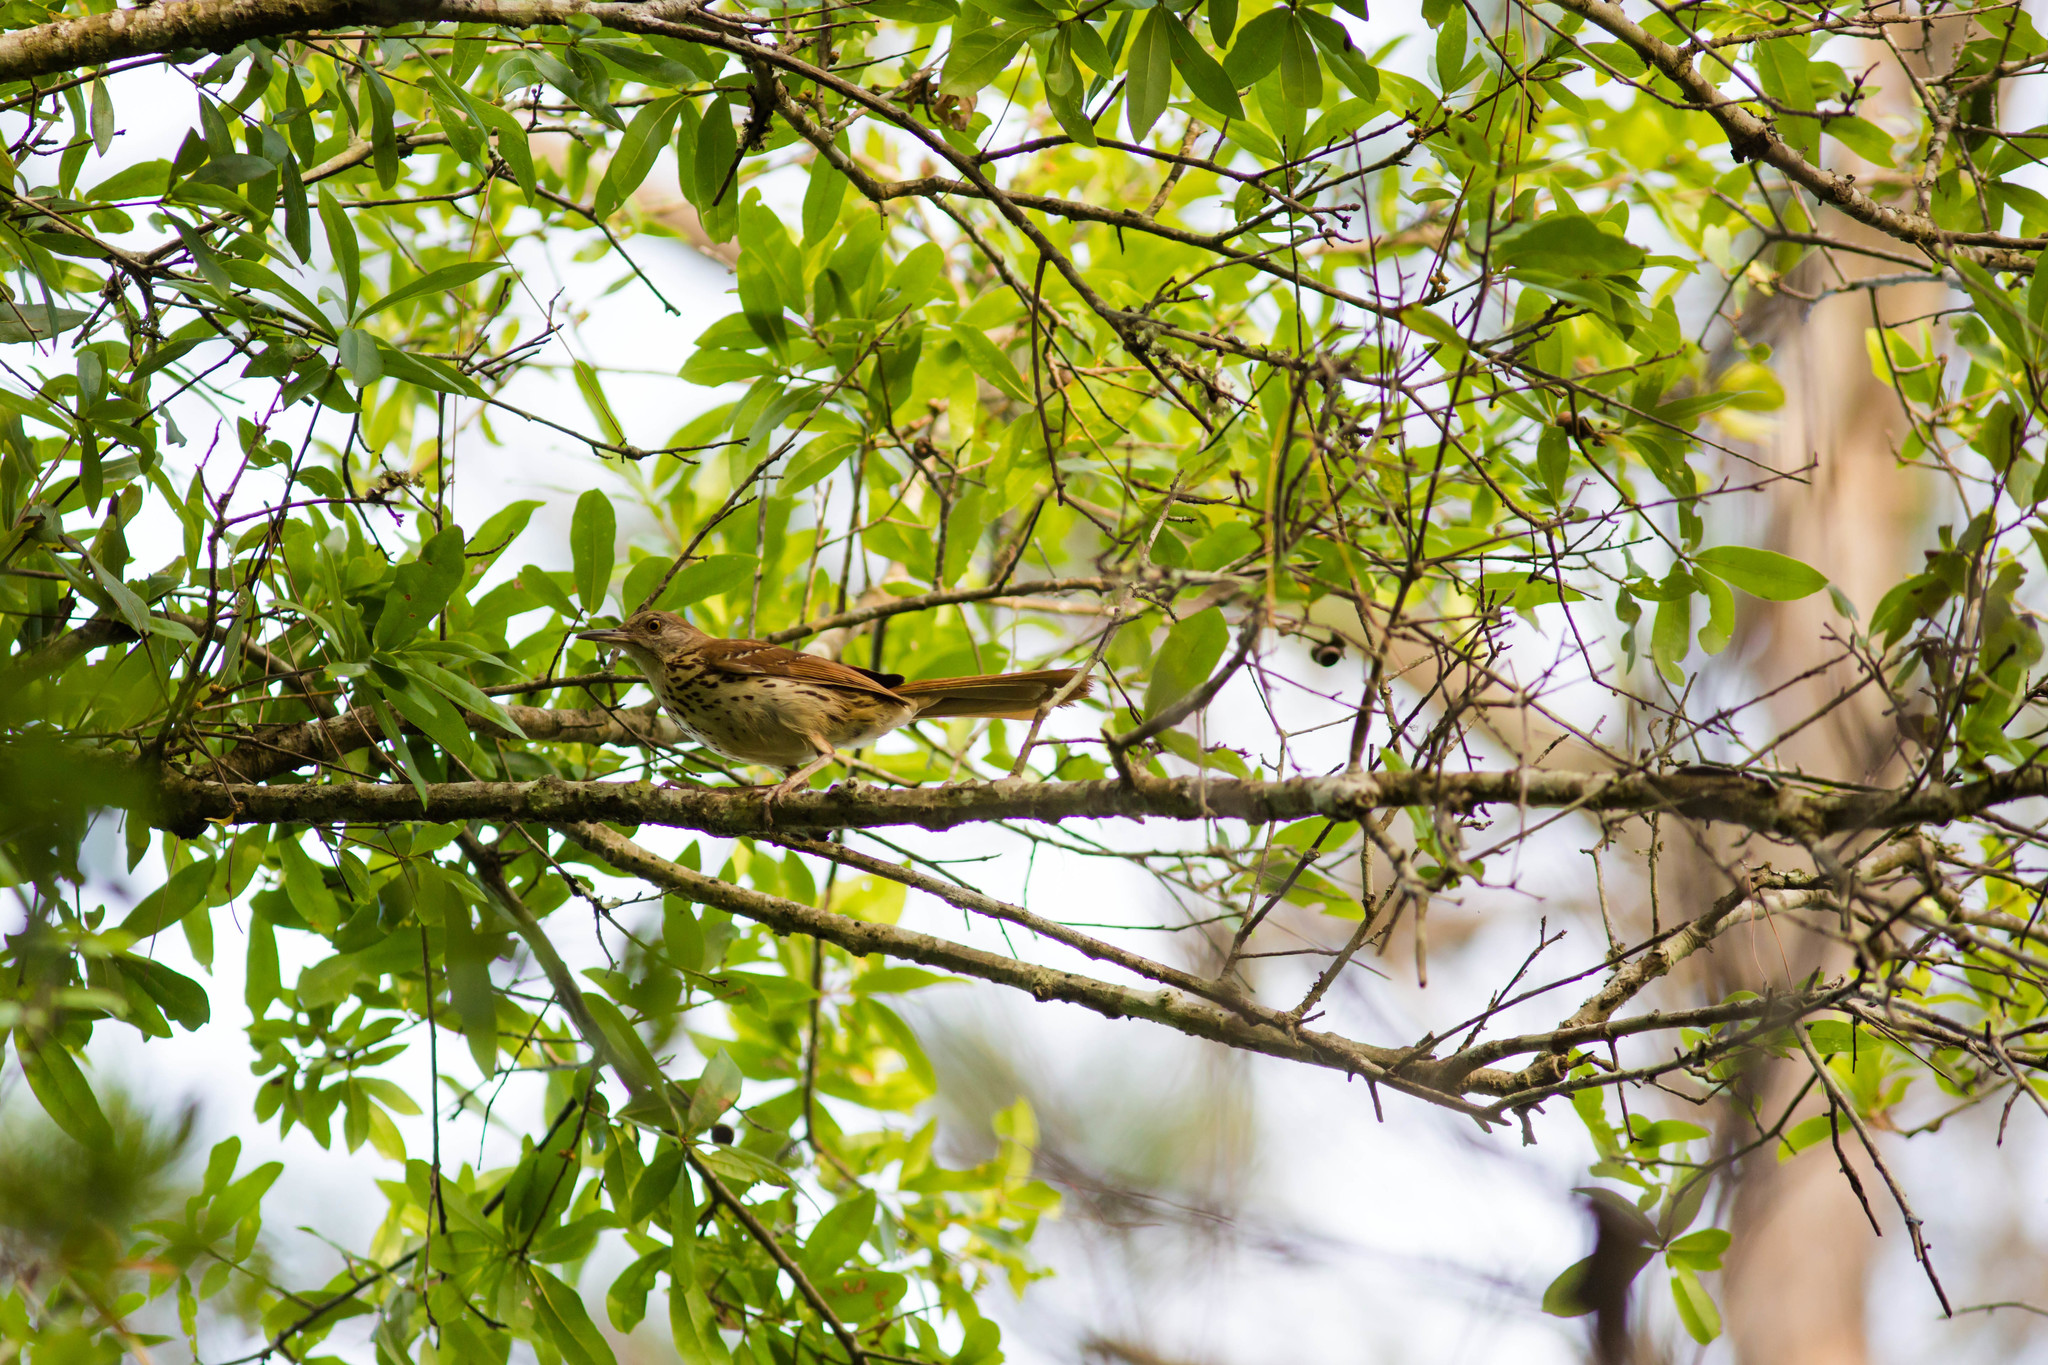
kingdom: Animalia
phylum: Chordata
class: Aves
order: Passeriformes
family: Mimidae
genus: Toxostoma
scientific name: Toxostoma rufum
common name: Brown thrasher
